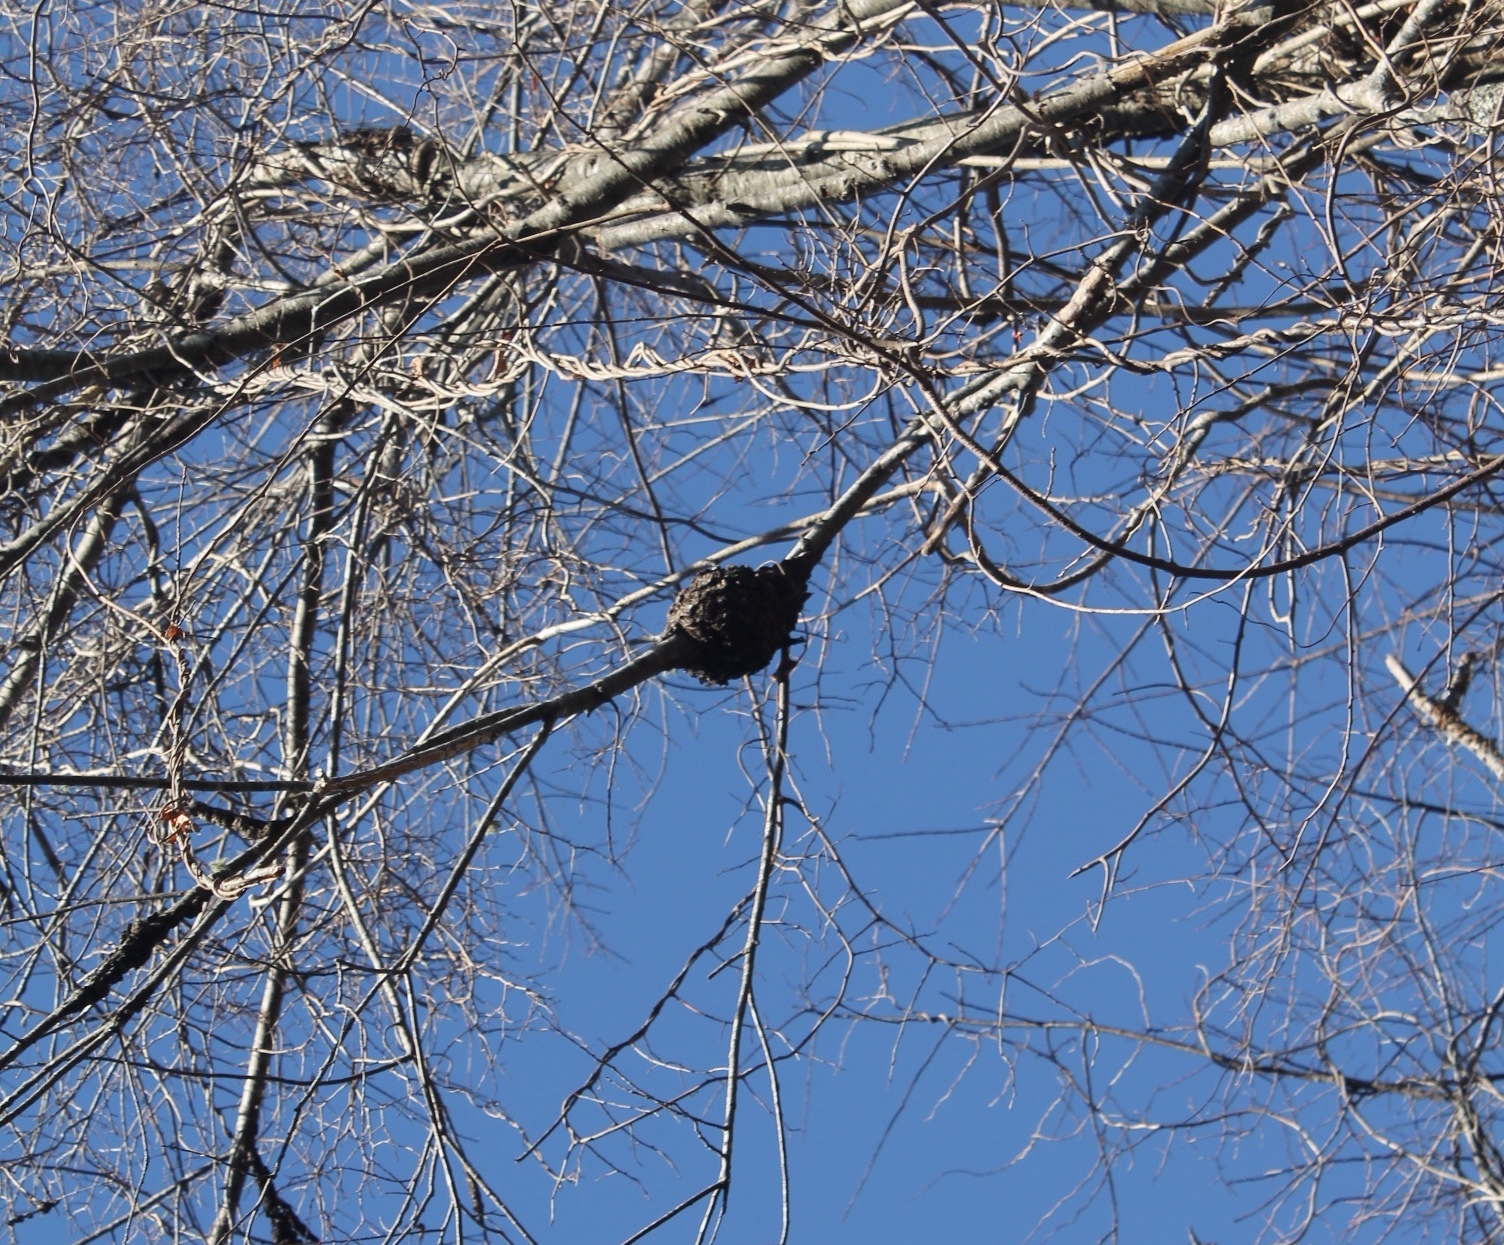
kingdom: Fungi
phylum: Ascomycota
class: Dothideomycetes
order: Venturiales
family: Venturiaceae
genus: Apiosporina
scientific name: Apiosporina morbosa
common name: Black knot
